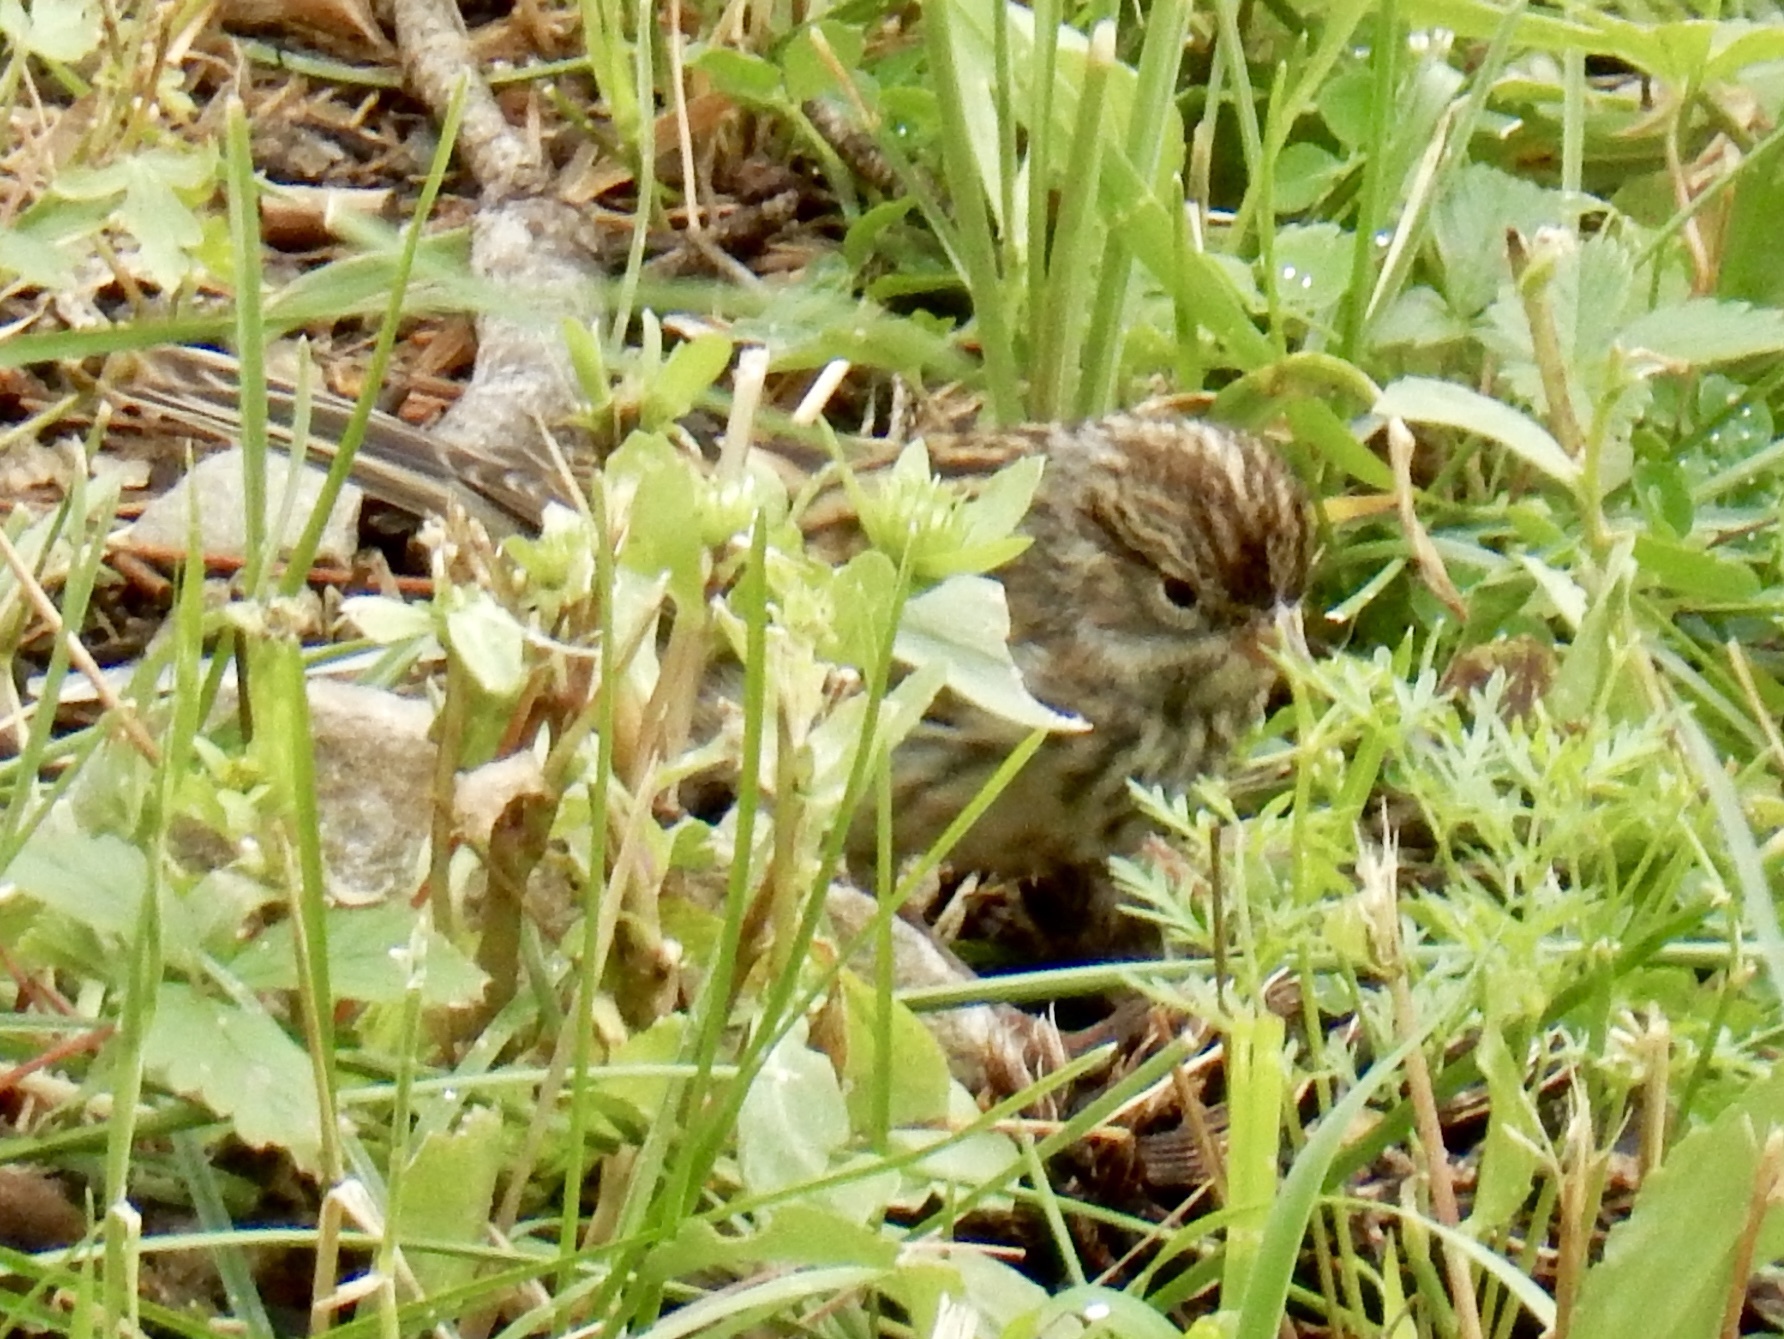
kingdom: Animalia
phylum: Chordata
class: Aves
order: Passeriformes
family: Passerellidae
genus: Spizella
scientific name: Spizella passerina
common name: Chipping sparrow
